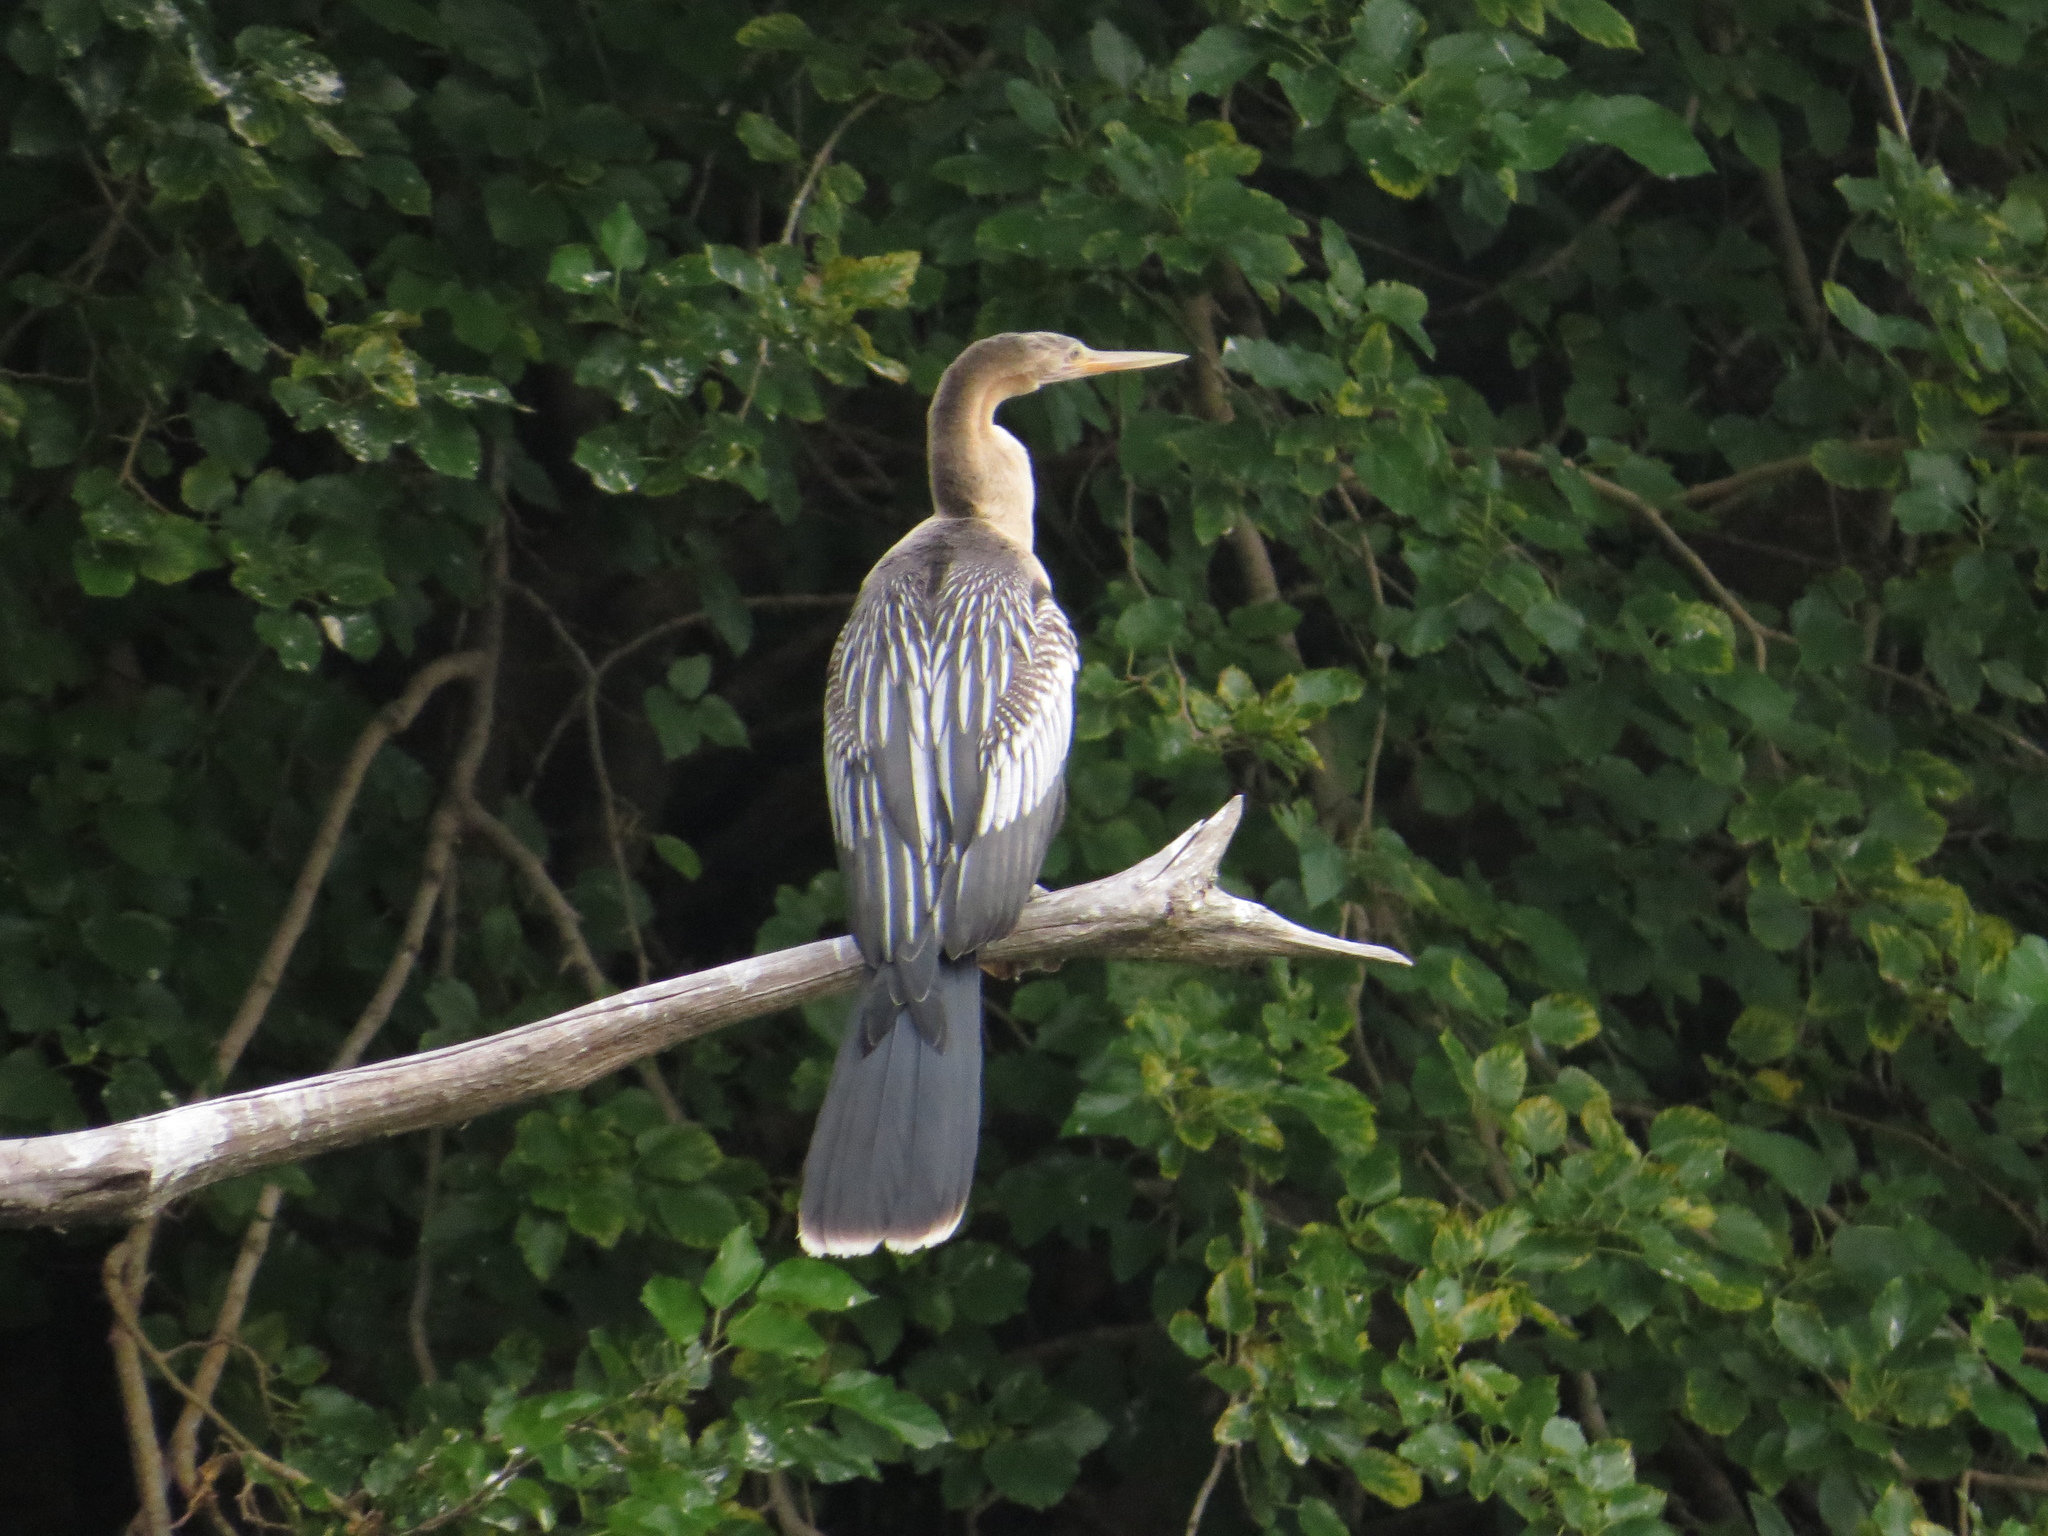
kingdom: Animalia
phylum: Chordata
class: Aves
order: Suliformes
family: Anhingidae
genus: Anhinga
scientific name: Anhinga anhinga
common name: Anhinga
